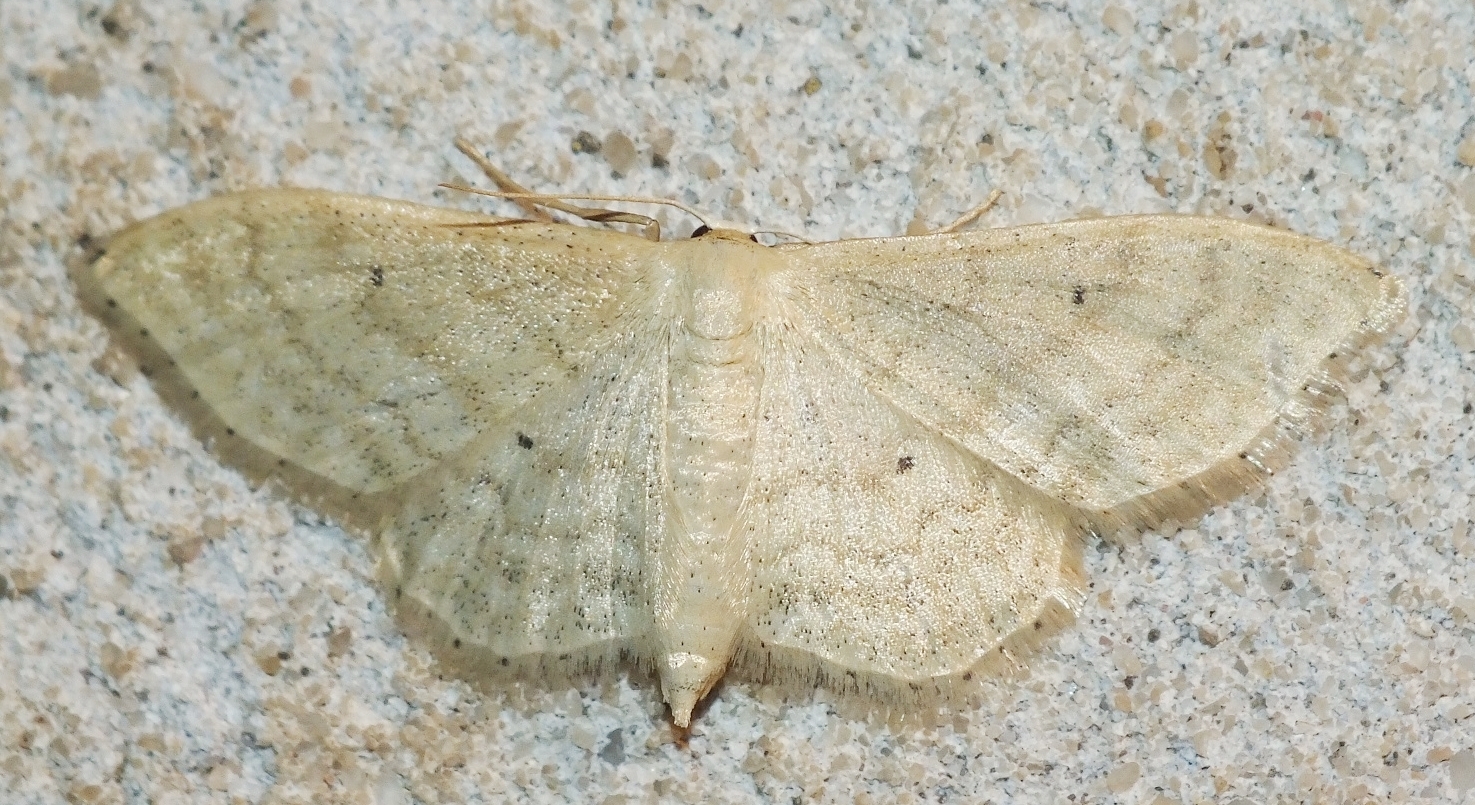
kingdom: Animalia
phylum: Arthropoda
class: Insecta
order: Lepidoptera
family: Geometridae
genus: Idaea
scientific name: Idaea maritimaria
